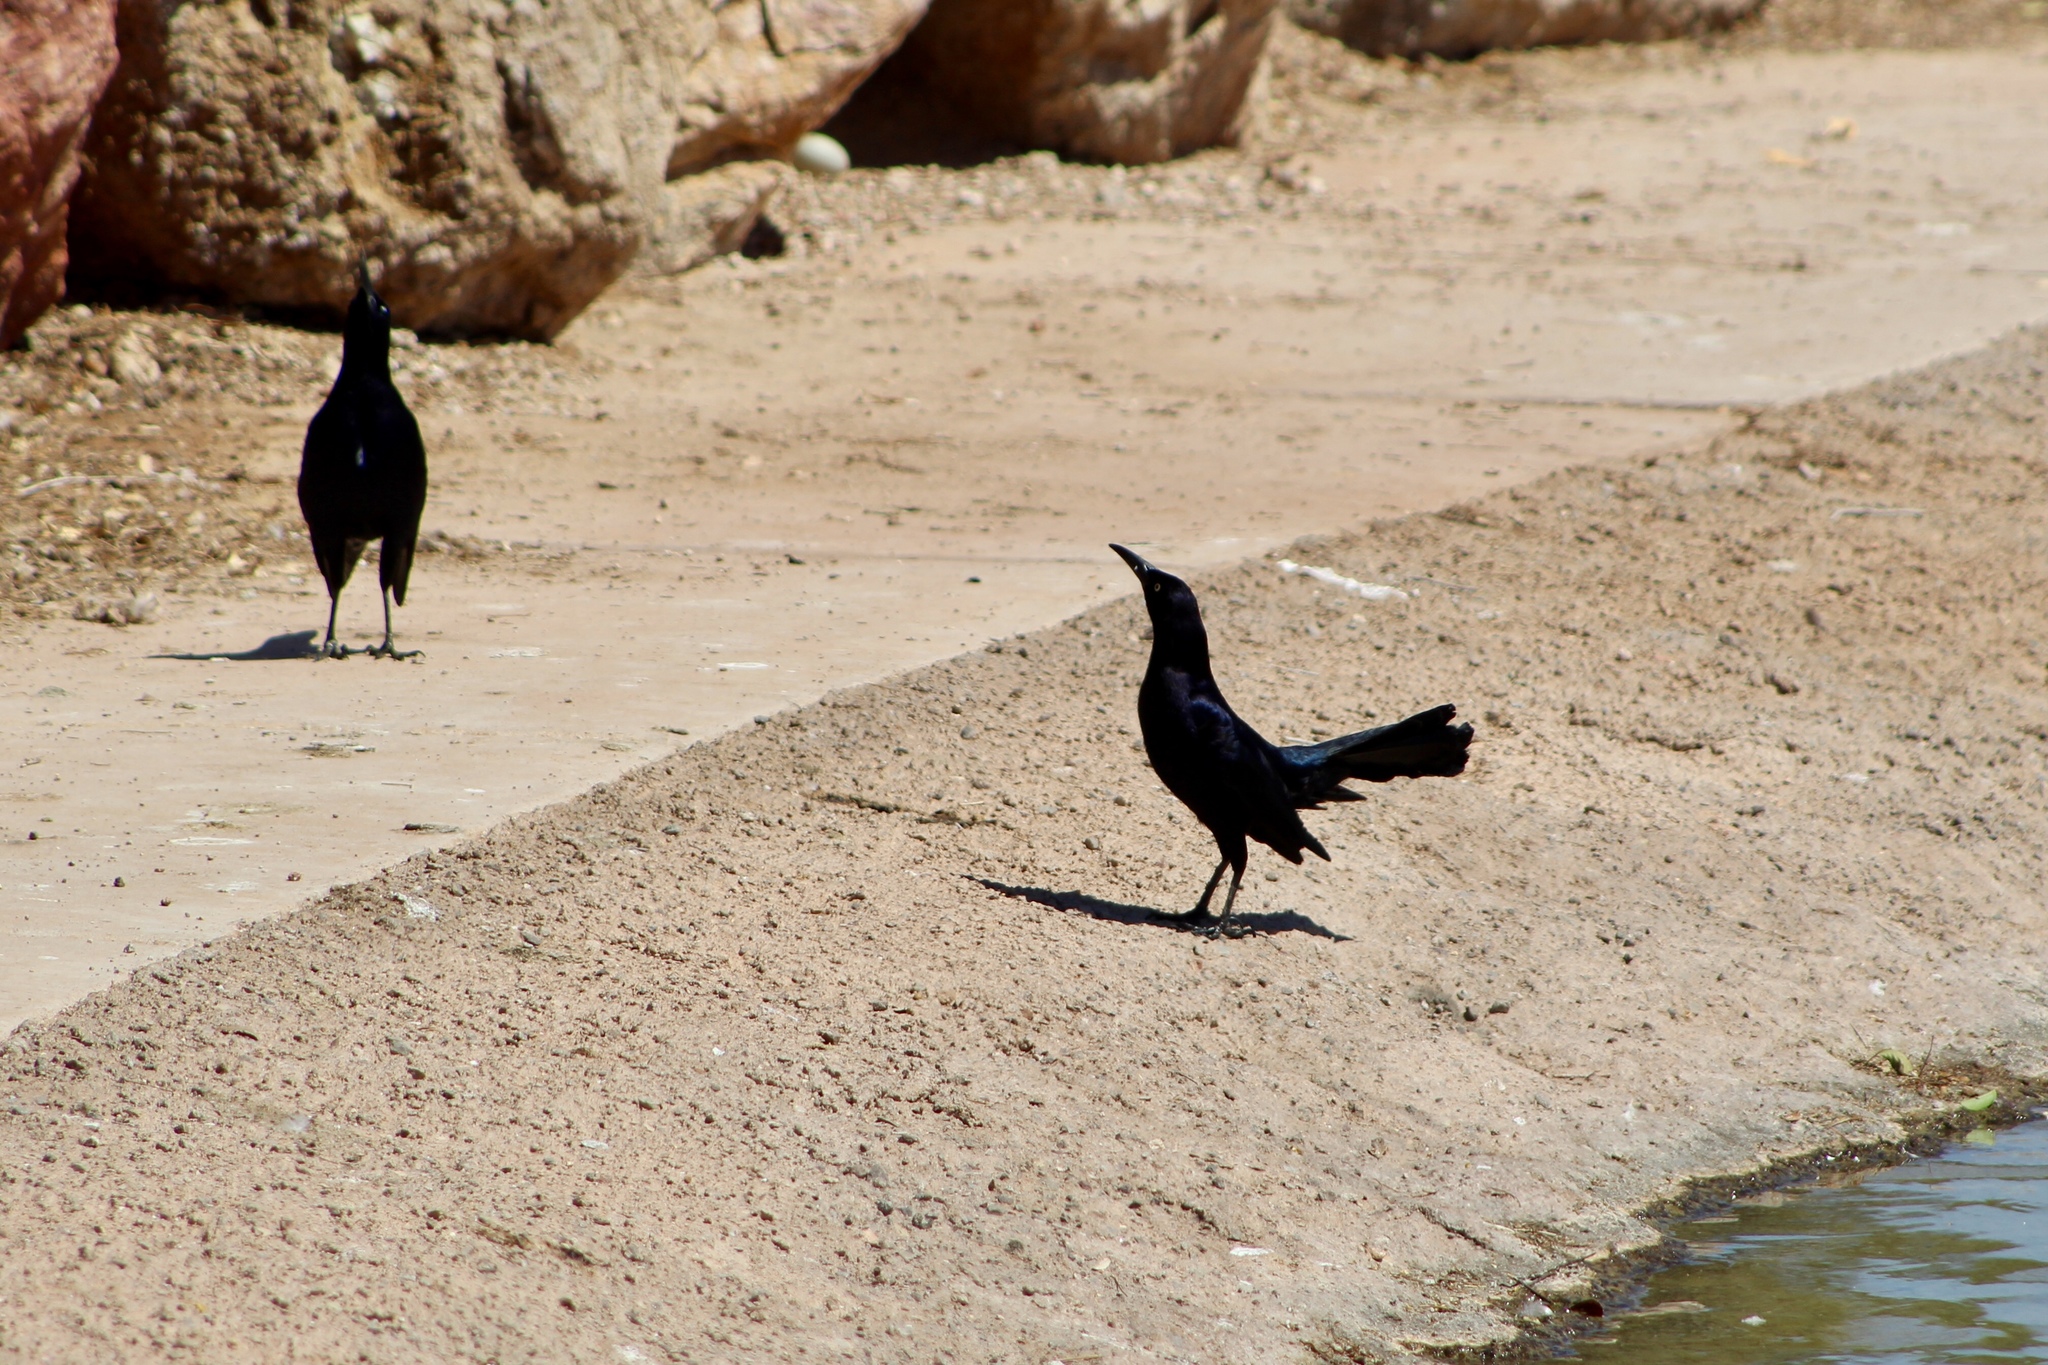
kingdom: Animalia
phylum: Chordata
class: Aves
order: Passeriformes
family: Icteridae
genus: Quiscalus
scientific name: Quiscalus mexicanus
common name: Great-tailed grackle
